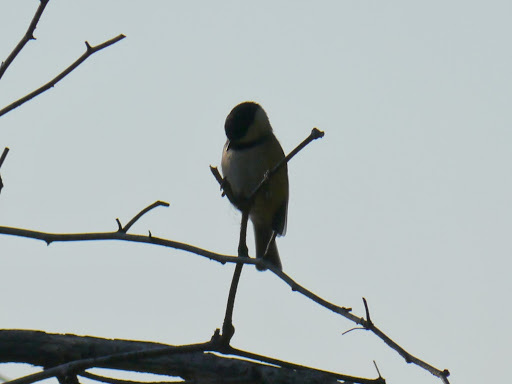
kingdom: Animalia
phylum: Chordata
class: Aves
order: Passeriformes
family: Paridae
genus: Poecile
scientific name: Poecile carolinensis
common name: Carolina chickadee
